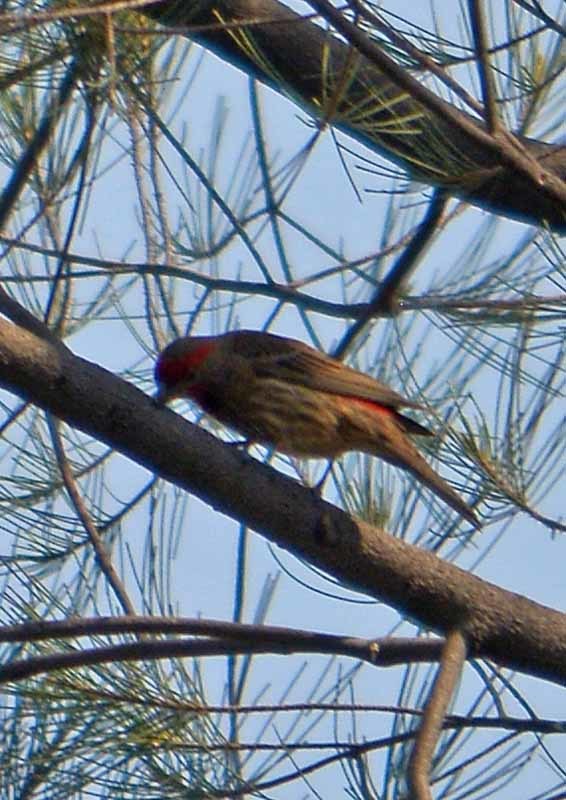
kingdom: Animalia
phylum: Chordata
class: Aves
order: Passeriformes
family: Fringillidae
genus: Haemorhous
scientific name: Haemorhous mexicanus
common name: House finch
